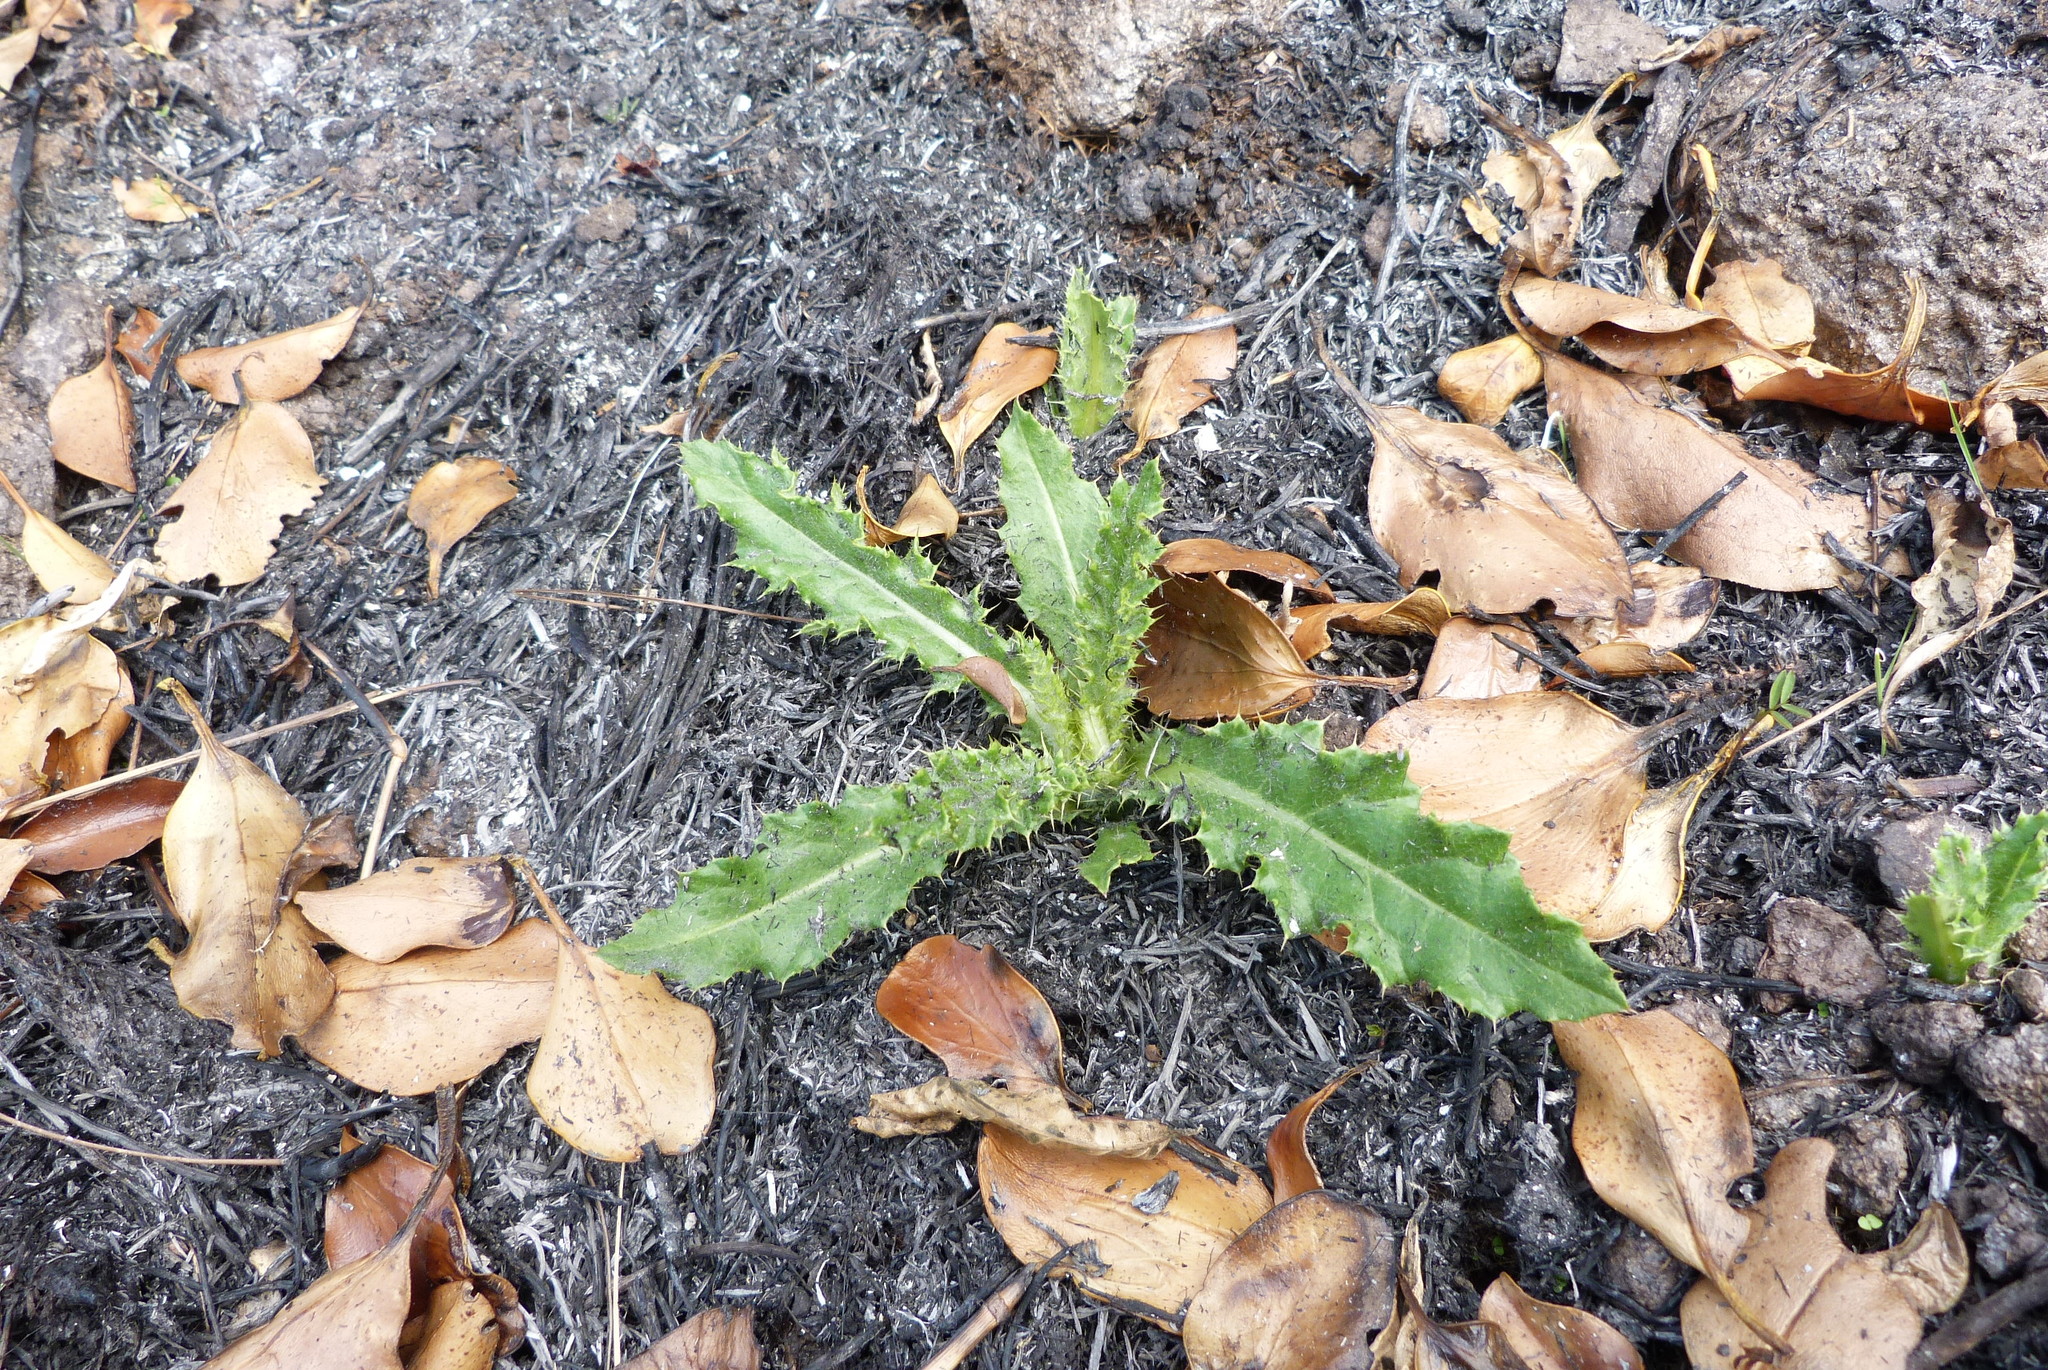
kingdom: Plantae
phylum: Tracheophyta
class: Magnoliopsida
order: Asterales
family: Asteraceae
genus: Cirsium
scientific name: Cirsium arvense
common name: Creeping thistle
